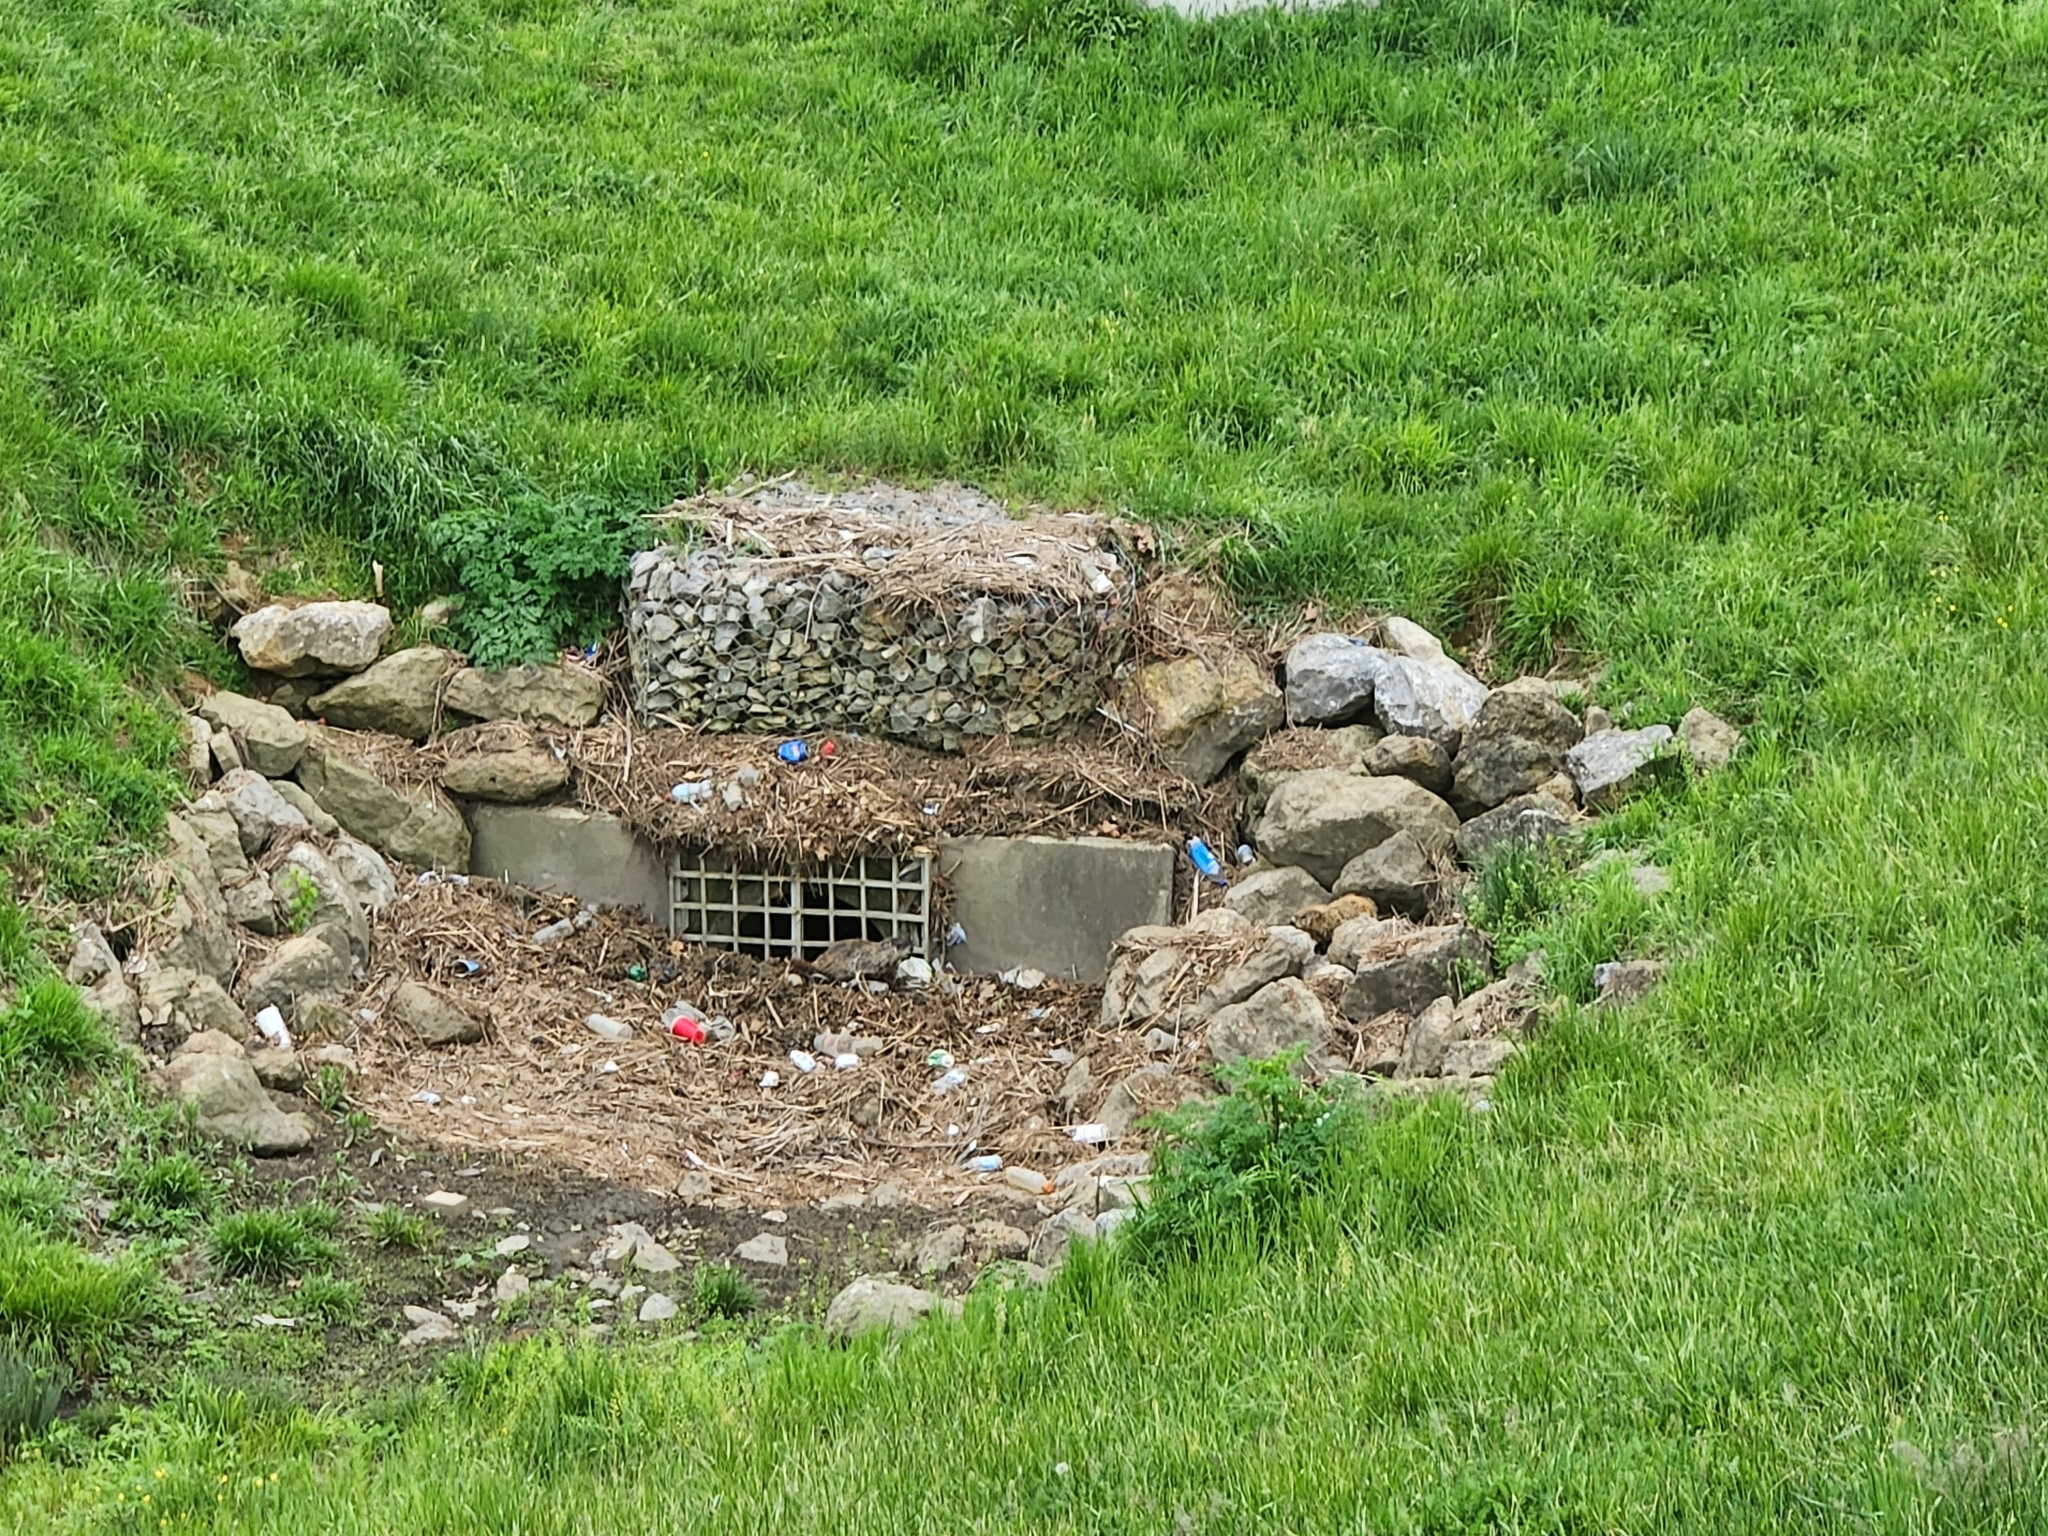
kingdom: Animalia
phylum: Chordata
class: Mammalia
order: Rodentia
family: Sciuridae
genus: Marmota
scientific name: Marmota monax
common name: Groundhog
